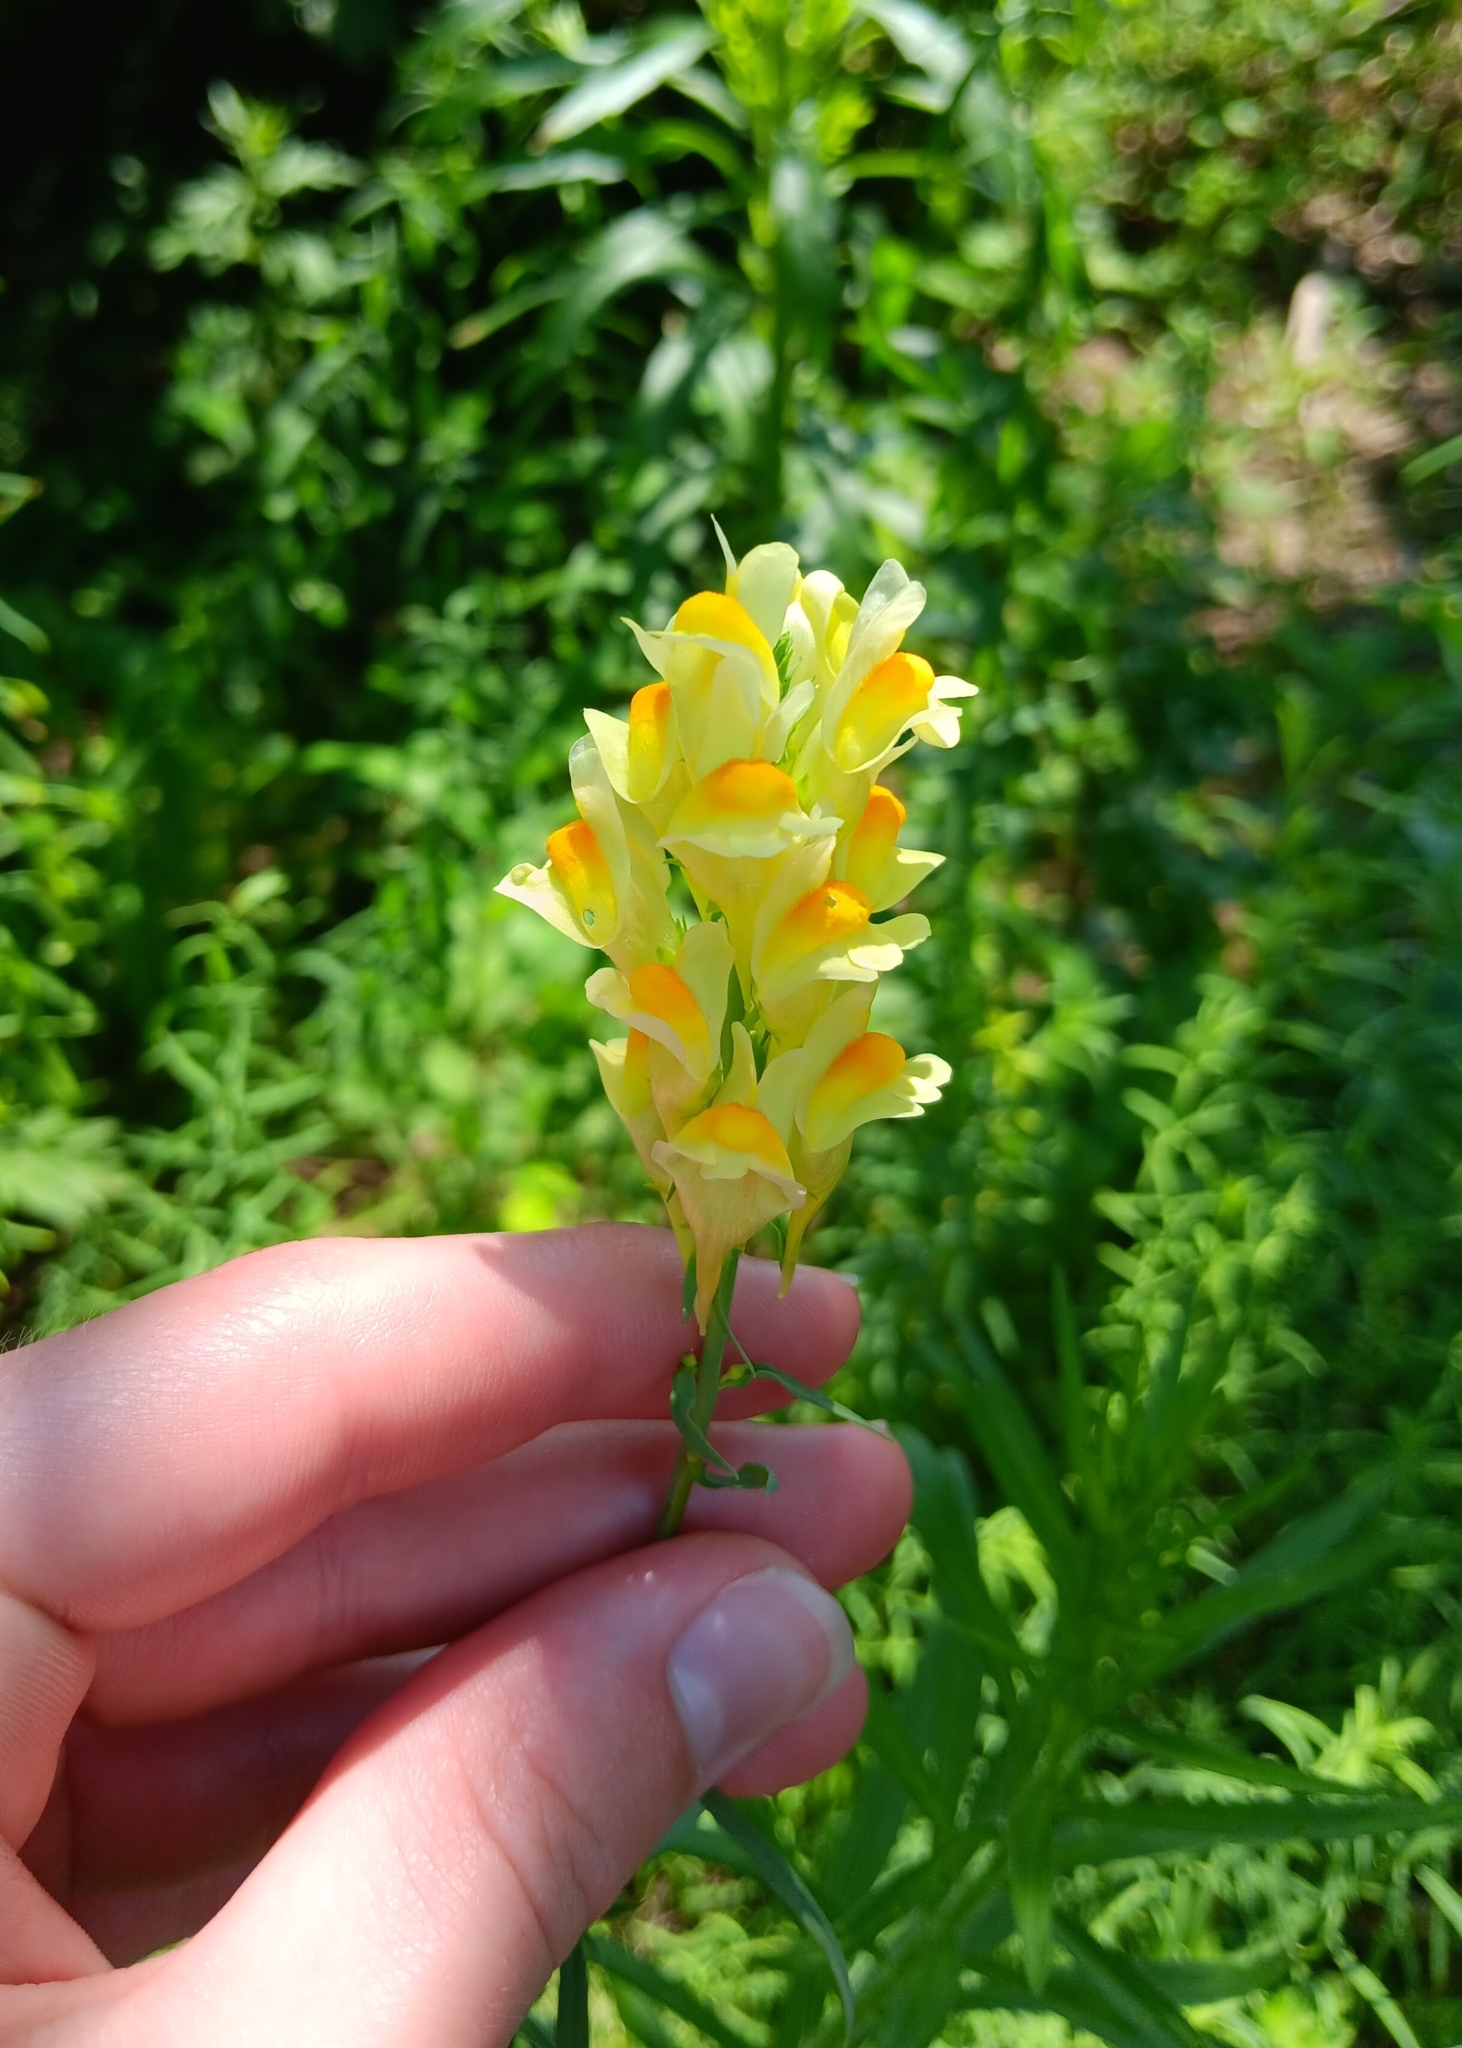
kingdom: Plantae
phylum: Tracheophyta
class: Magnoliopsida
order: Lamiales
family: Plantaginaceae
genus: Linaria
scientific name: Linaria vulgaris
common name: Butter and eggs
